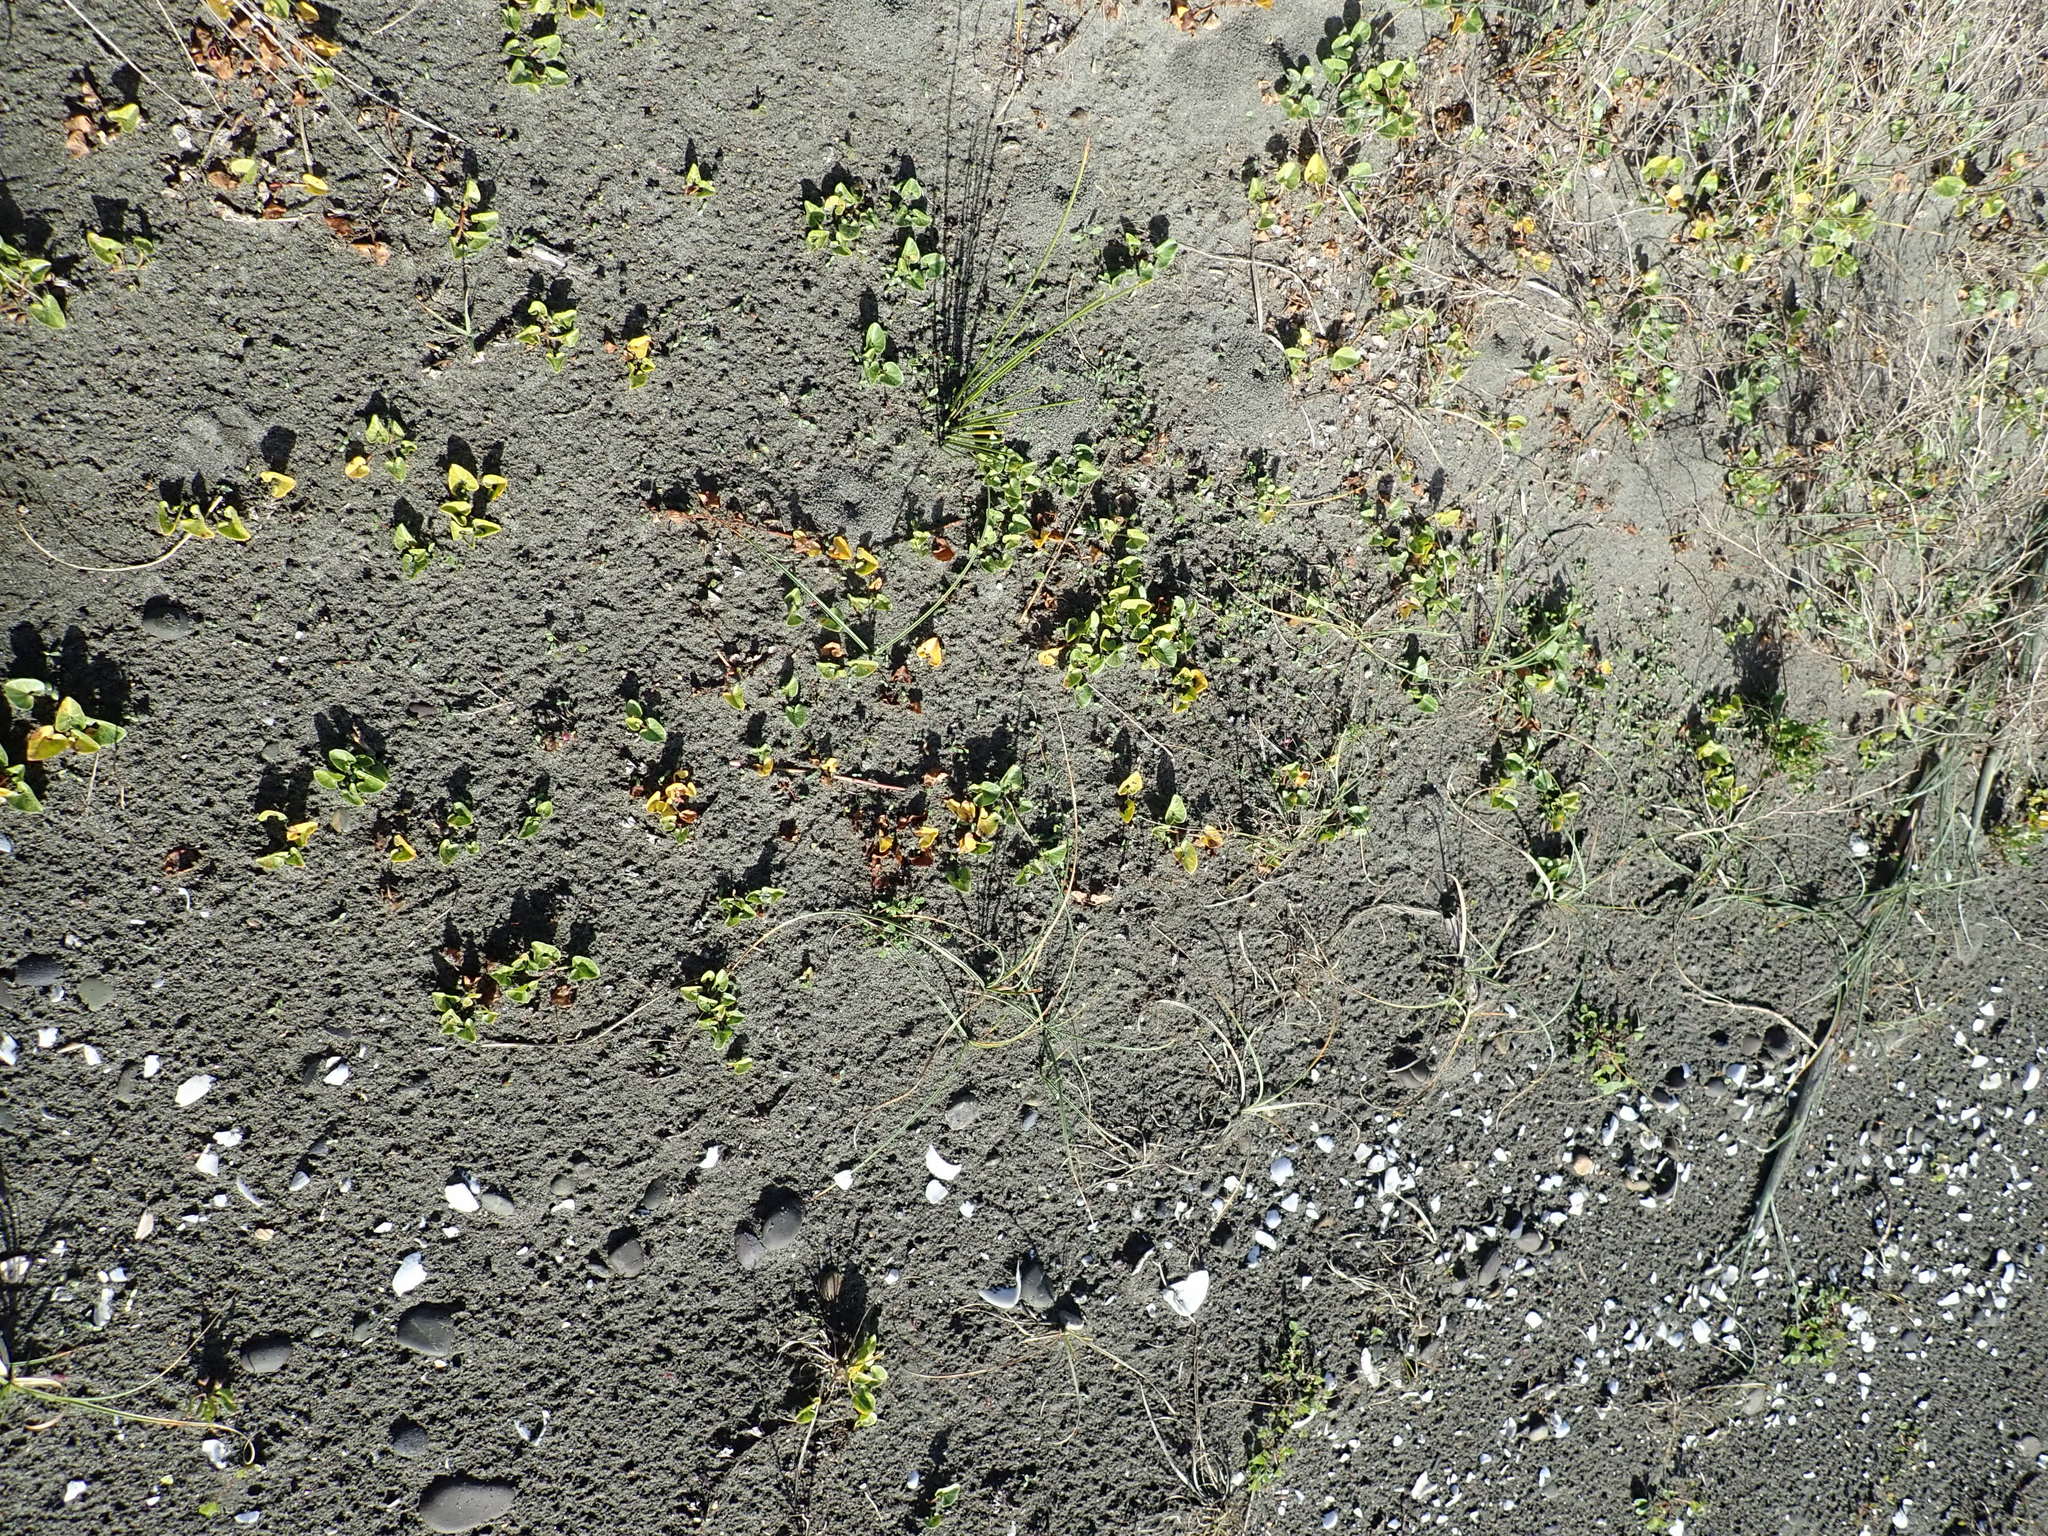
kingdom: Plantae
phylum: Tracheophyta
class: Magnoliopsida
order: Solanales
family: Convolvulaceae
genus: Calystegia
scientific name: Calystegia soldanella
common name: Sea bindweed
